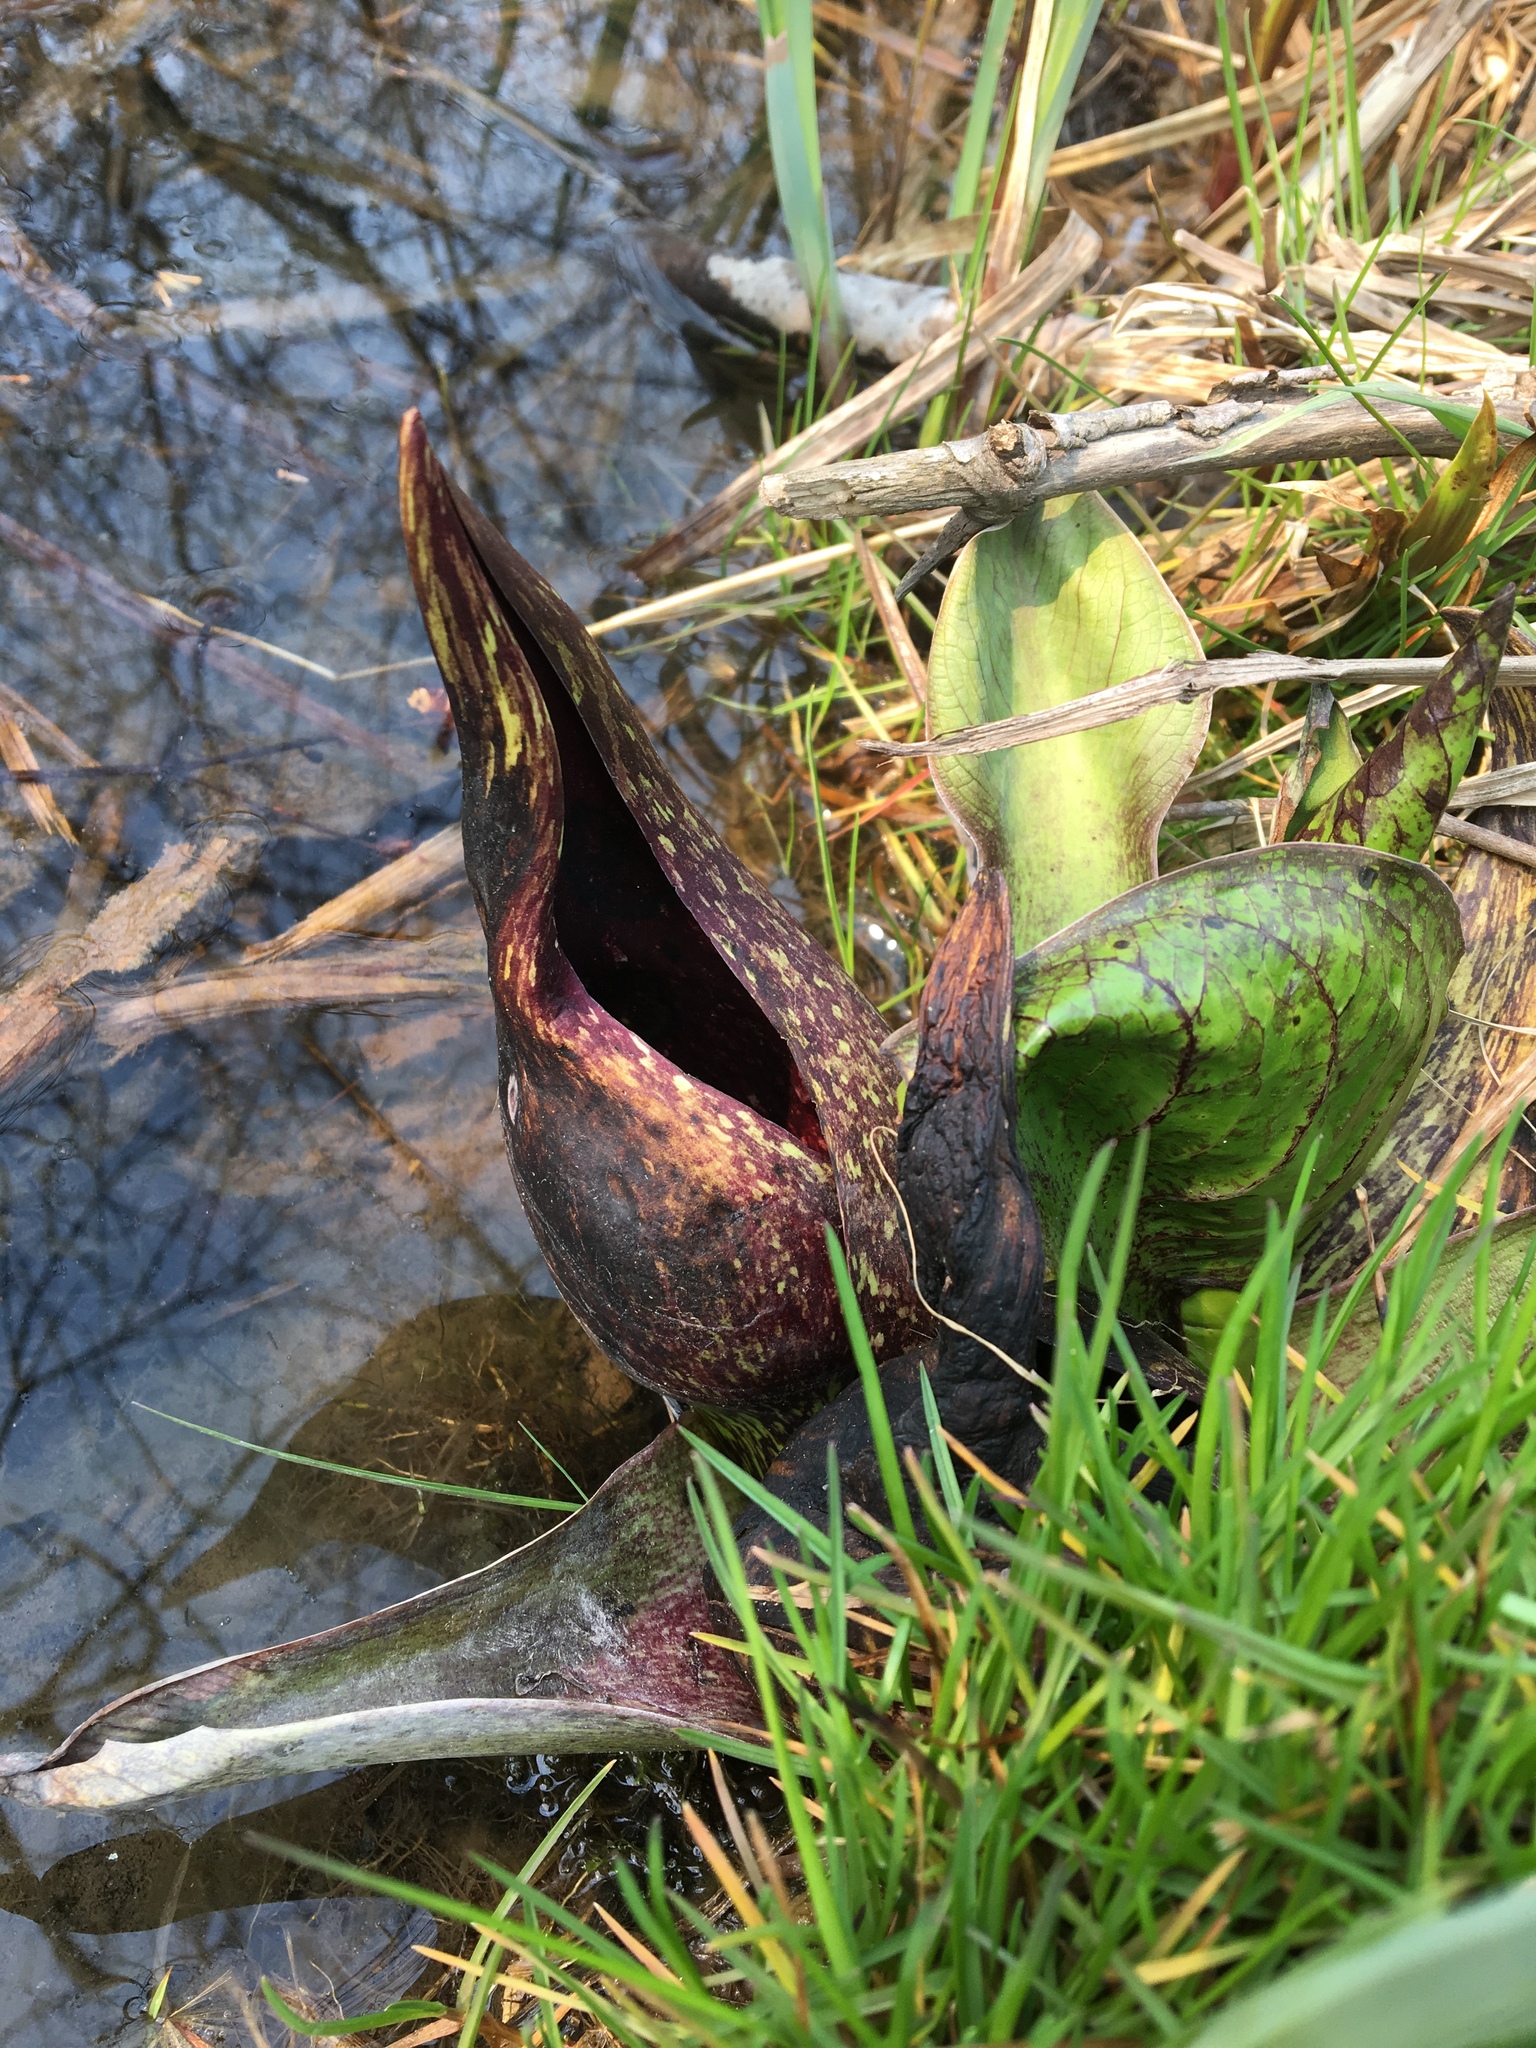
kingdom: Plantae
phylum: Tracheophyta
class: Liliopsida
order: Alismatales
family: Araceae
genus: Symplocarpus
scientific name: Symplocarpus foetidus
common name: Eastern skunk cabbage
